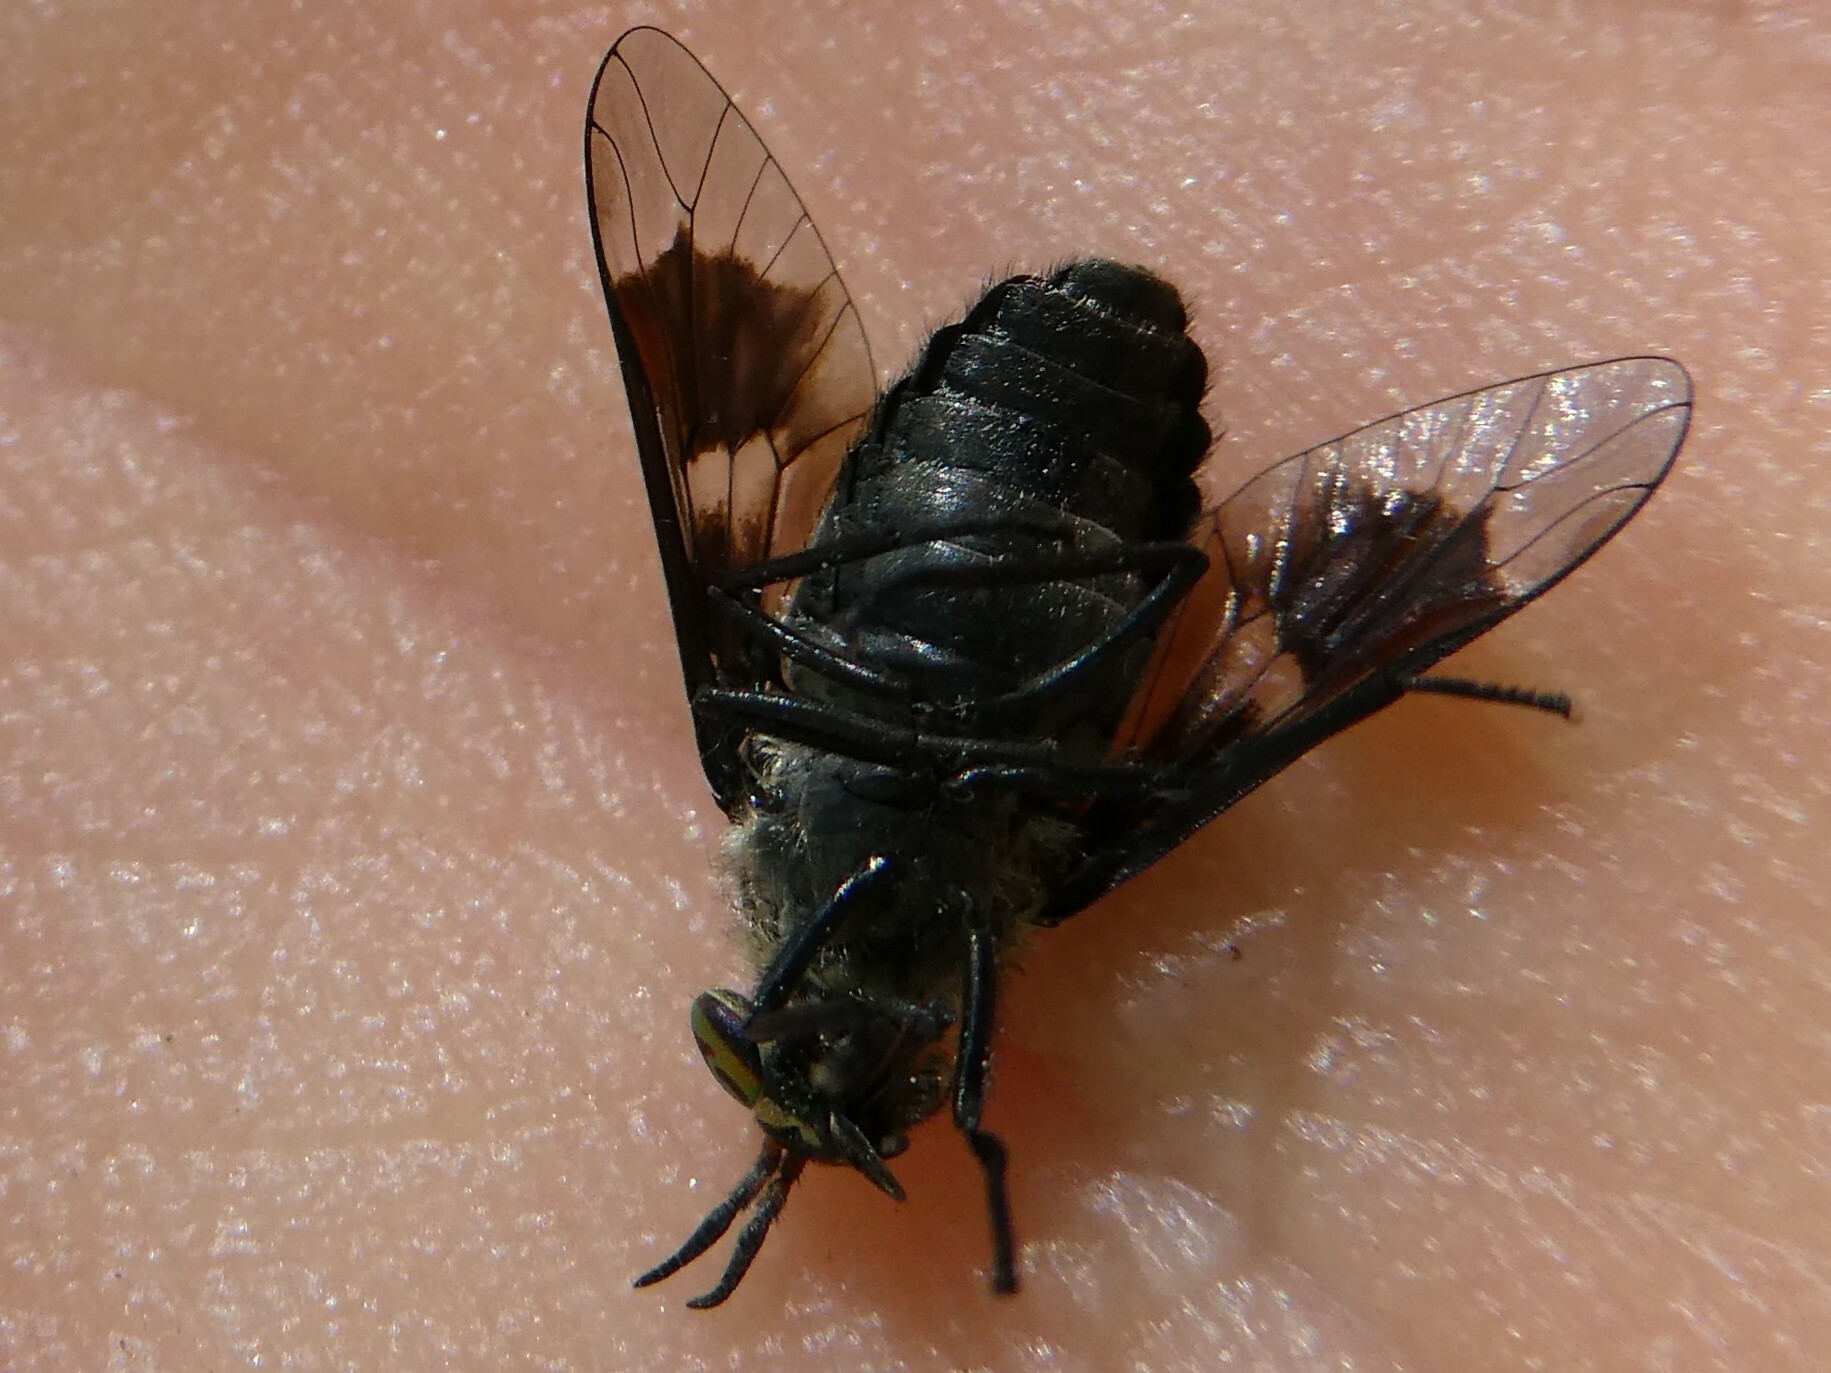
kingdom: Animalia
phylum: Arthropoda
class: Insecta
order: Diptera
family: Tabanidae
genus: Chrysops
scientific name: Chrysops ater
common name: Dark deer fly
